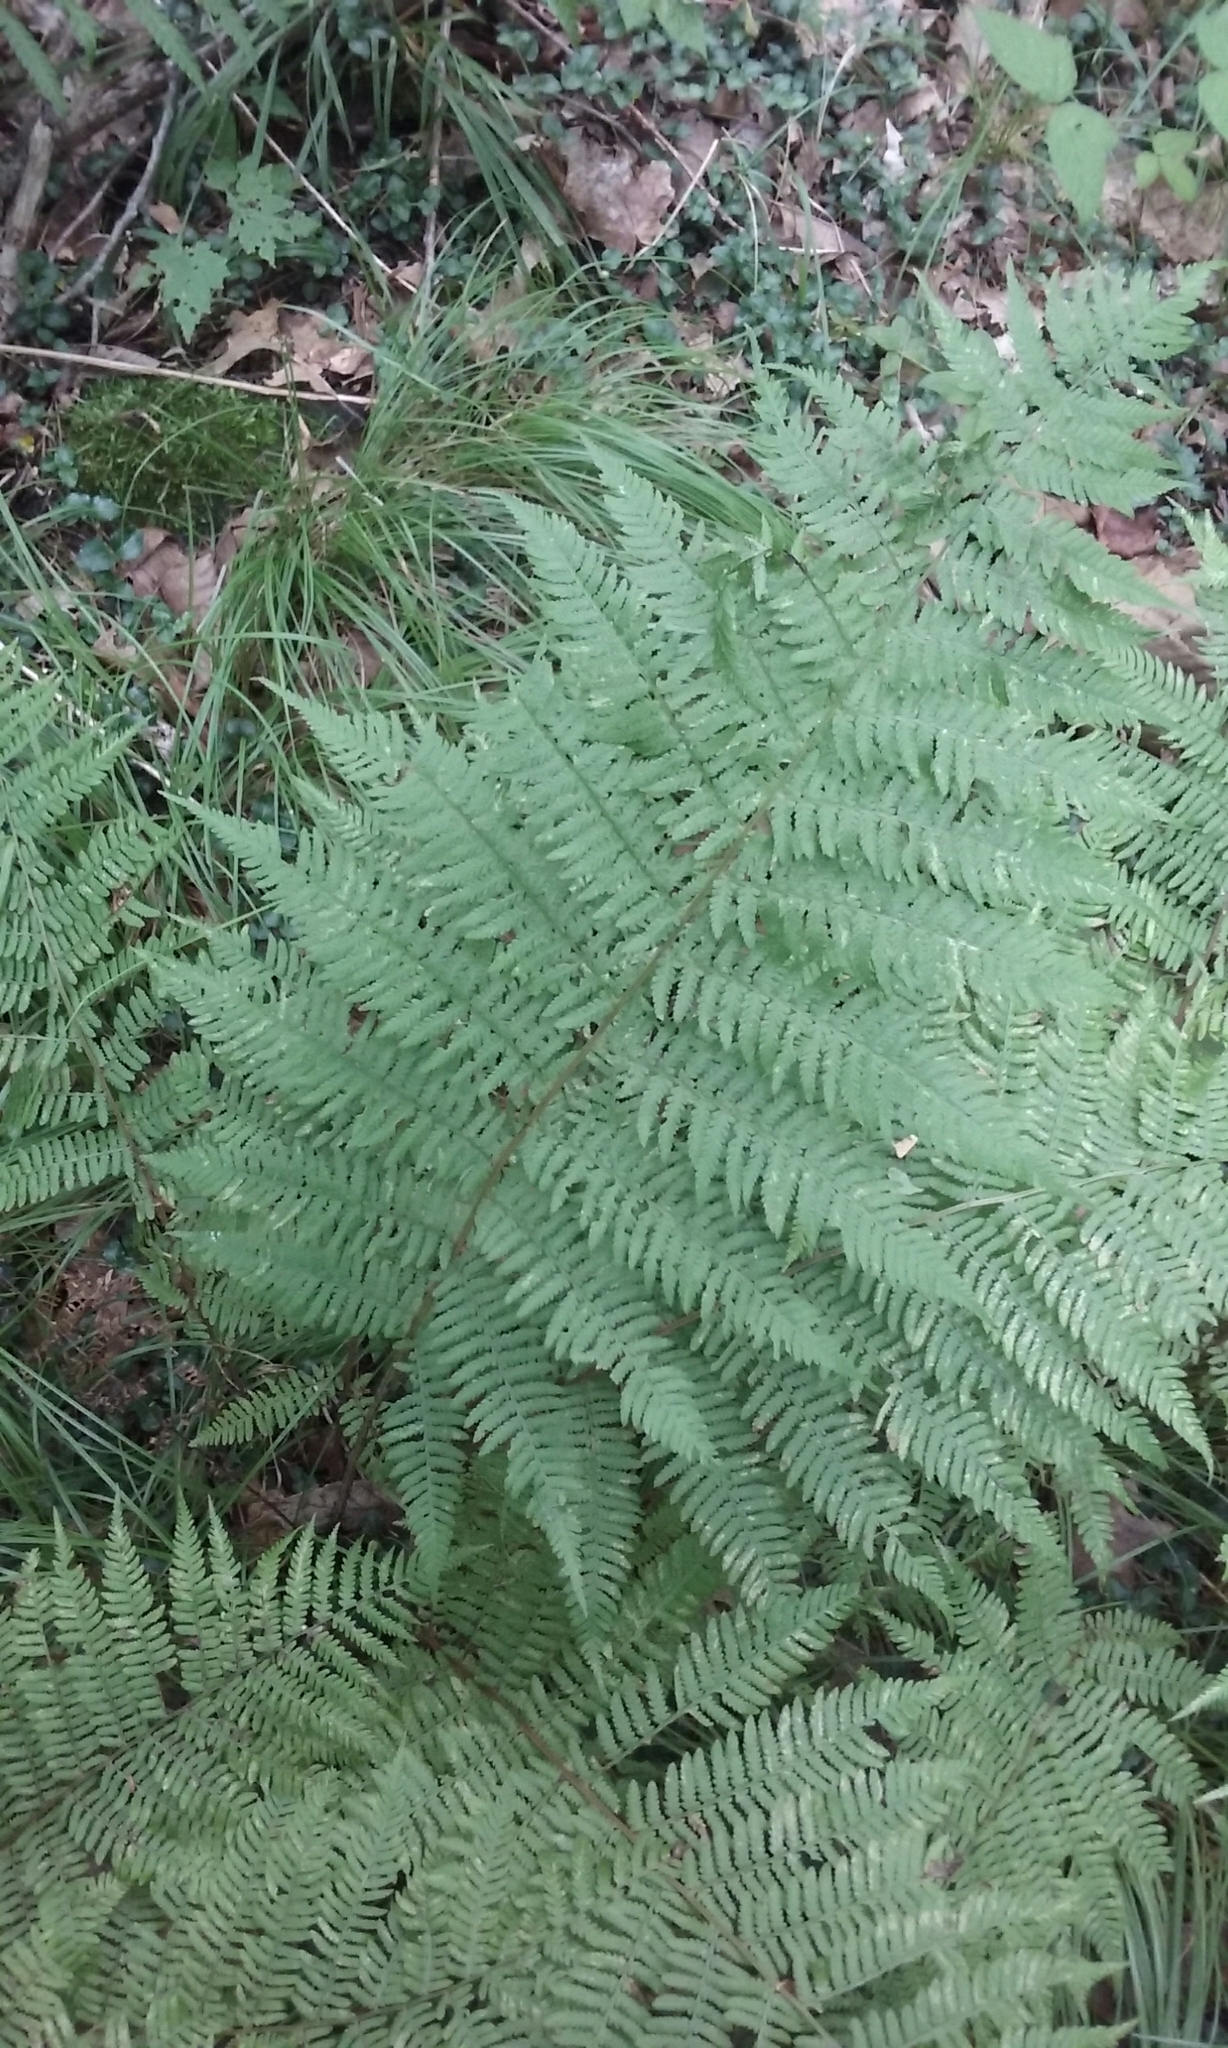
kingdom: Plantae
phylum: Tracheophyta
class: Polypodiopsida
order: Polypodiales
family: Athyriaceae
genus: Athyrium
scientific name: Athyrium angustum
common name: Northern lady fern
